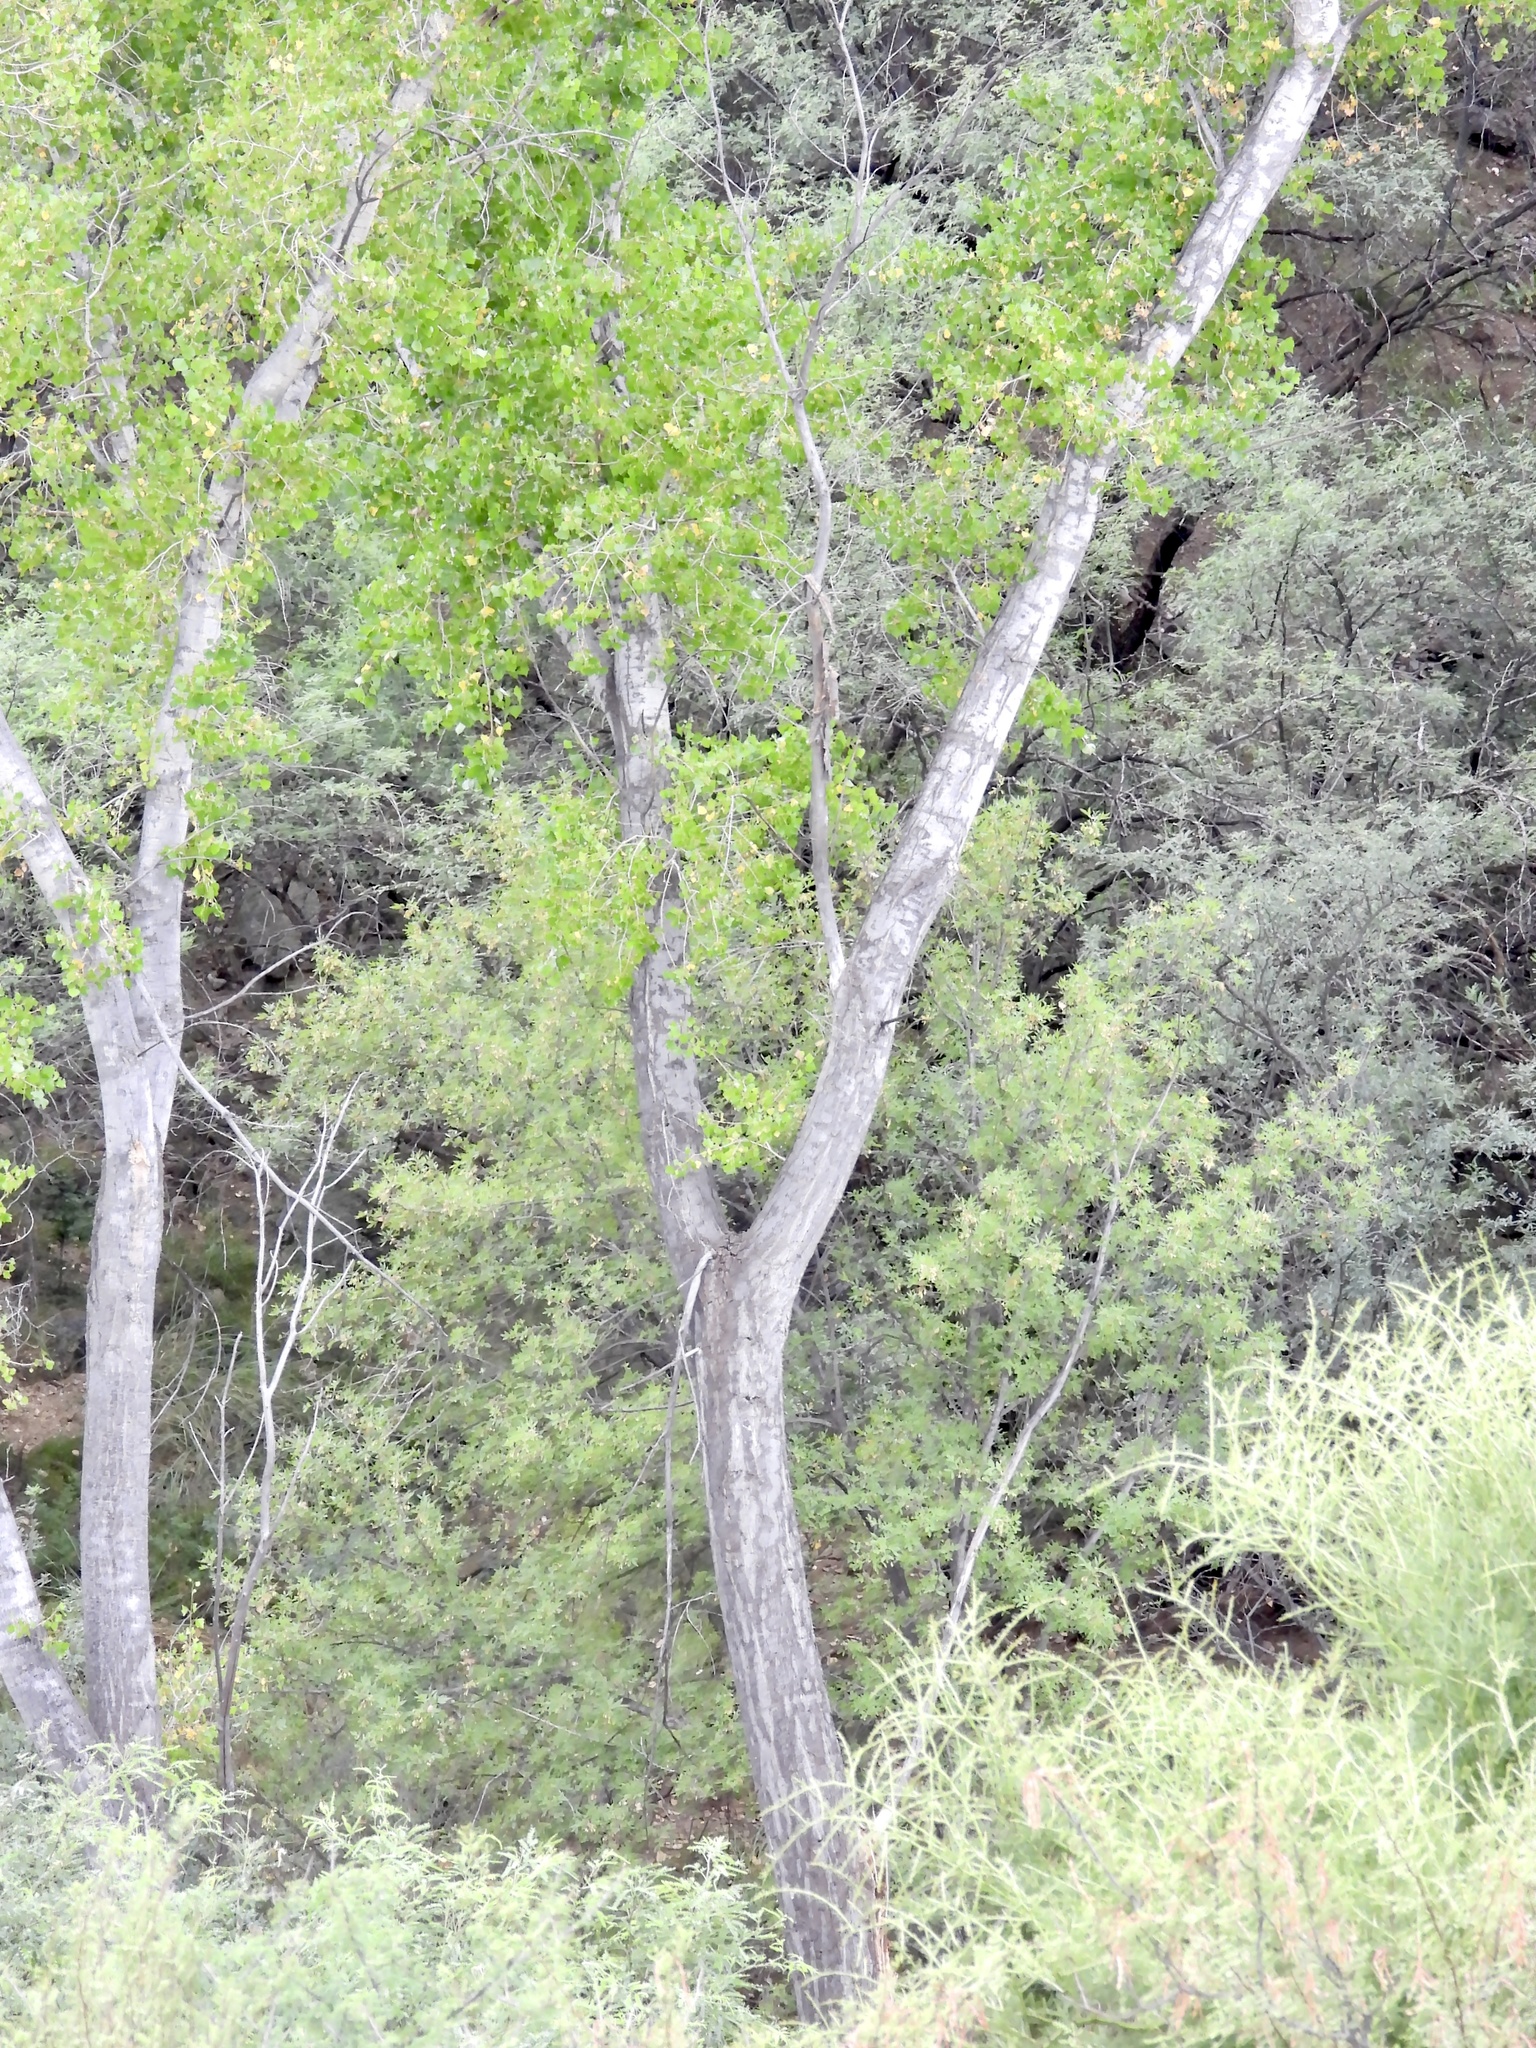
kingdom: Plantae
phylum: Tracheophyta
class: Magnoliopsida
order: Malpighiales
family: Salicaceae
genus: Populus
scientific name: Populus fremontii
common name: Fremont's cottonwood
